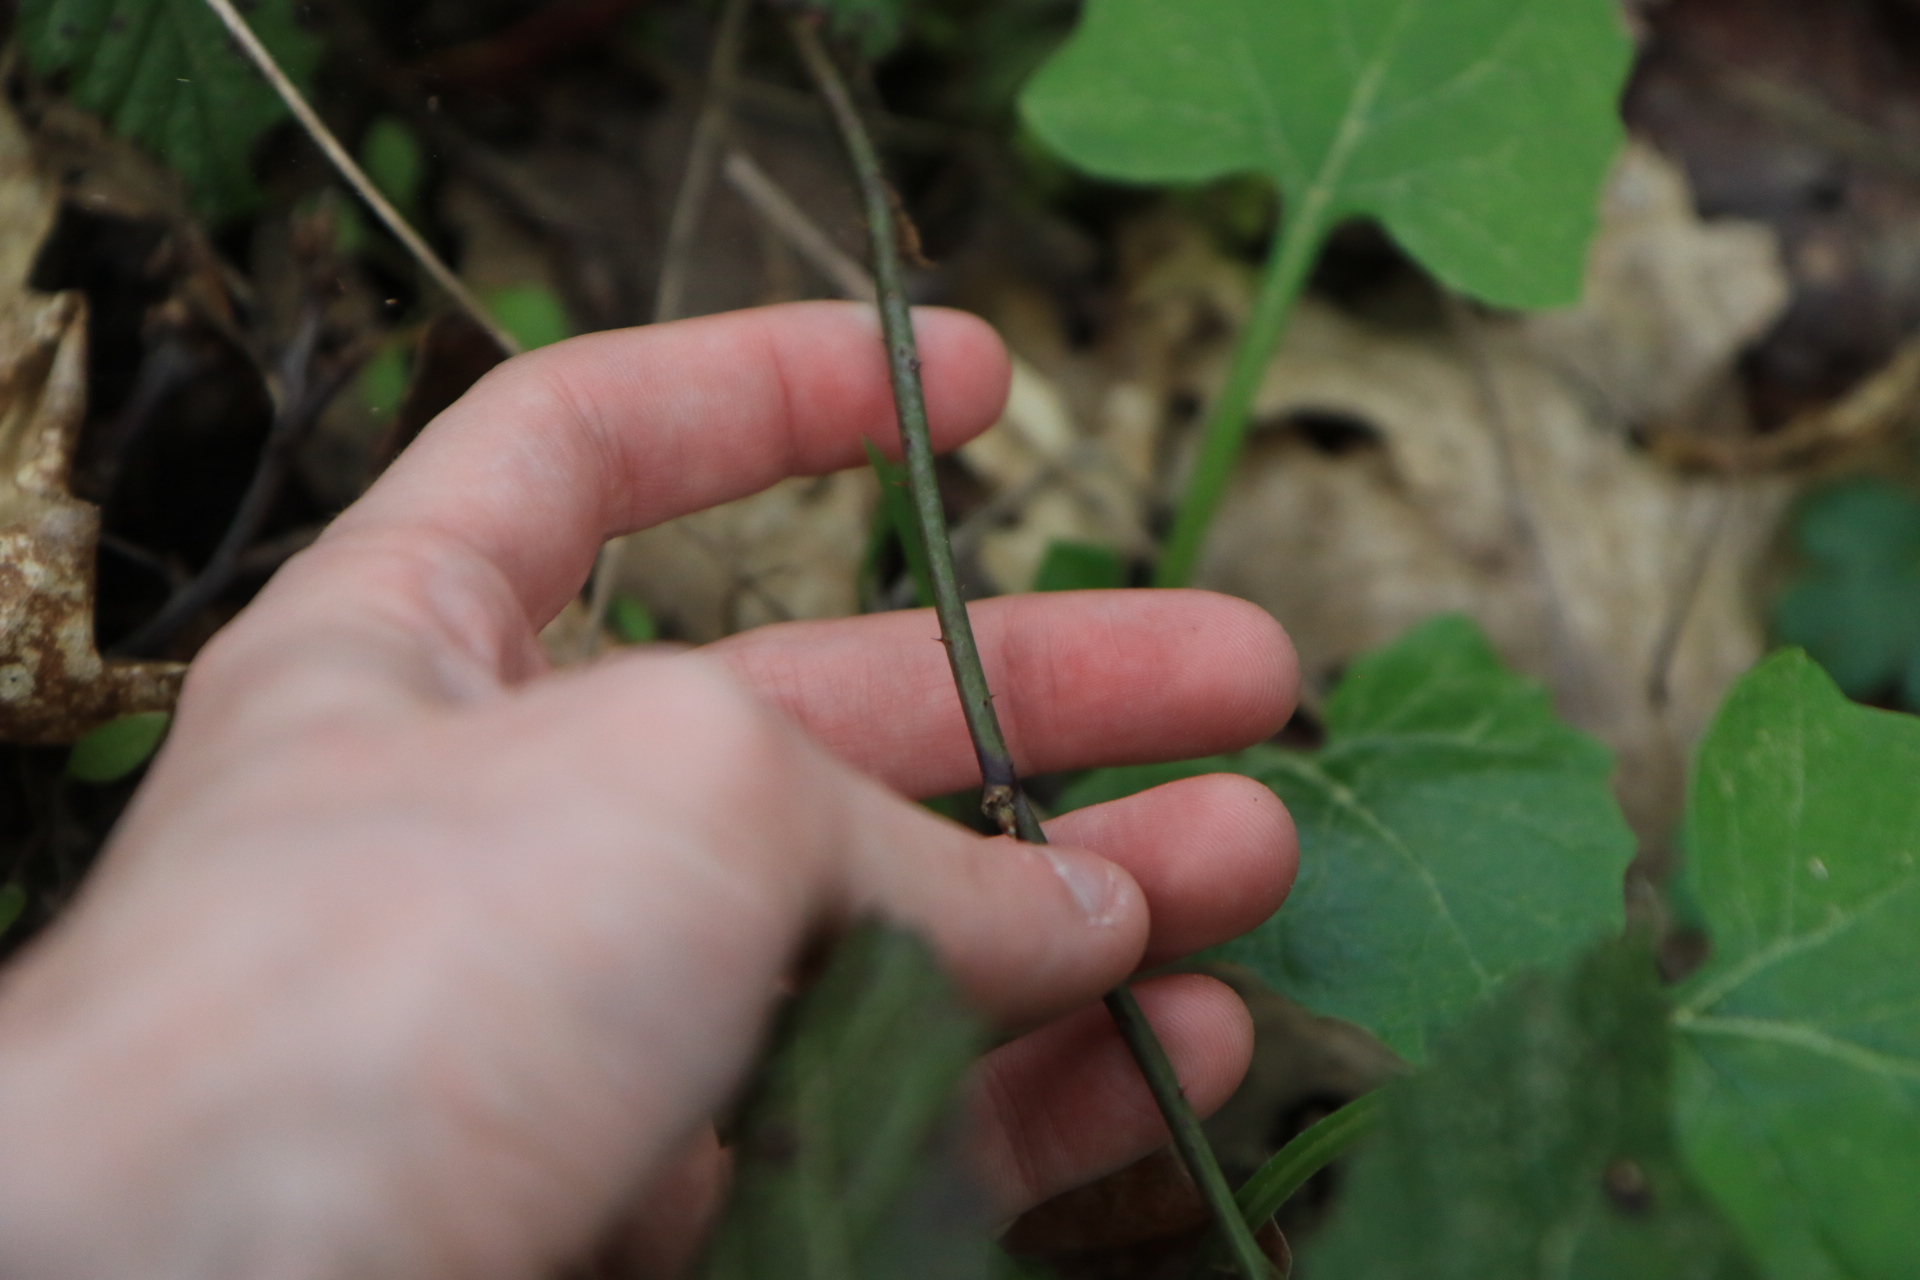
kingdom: Plantae
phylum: Tracheophyta
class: Magnoliopsida
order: Rosales
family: Rosaceae
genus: Rubus
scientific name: Rubus ursinus
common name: Pacific blackberry
